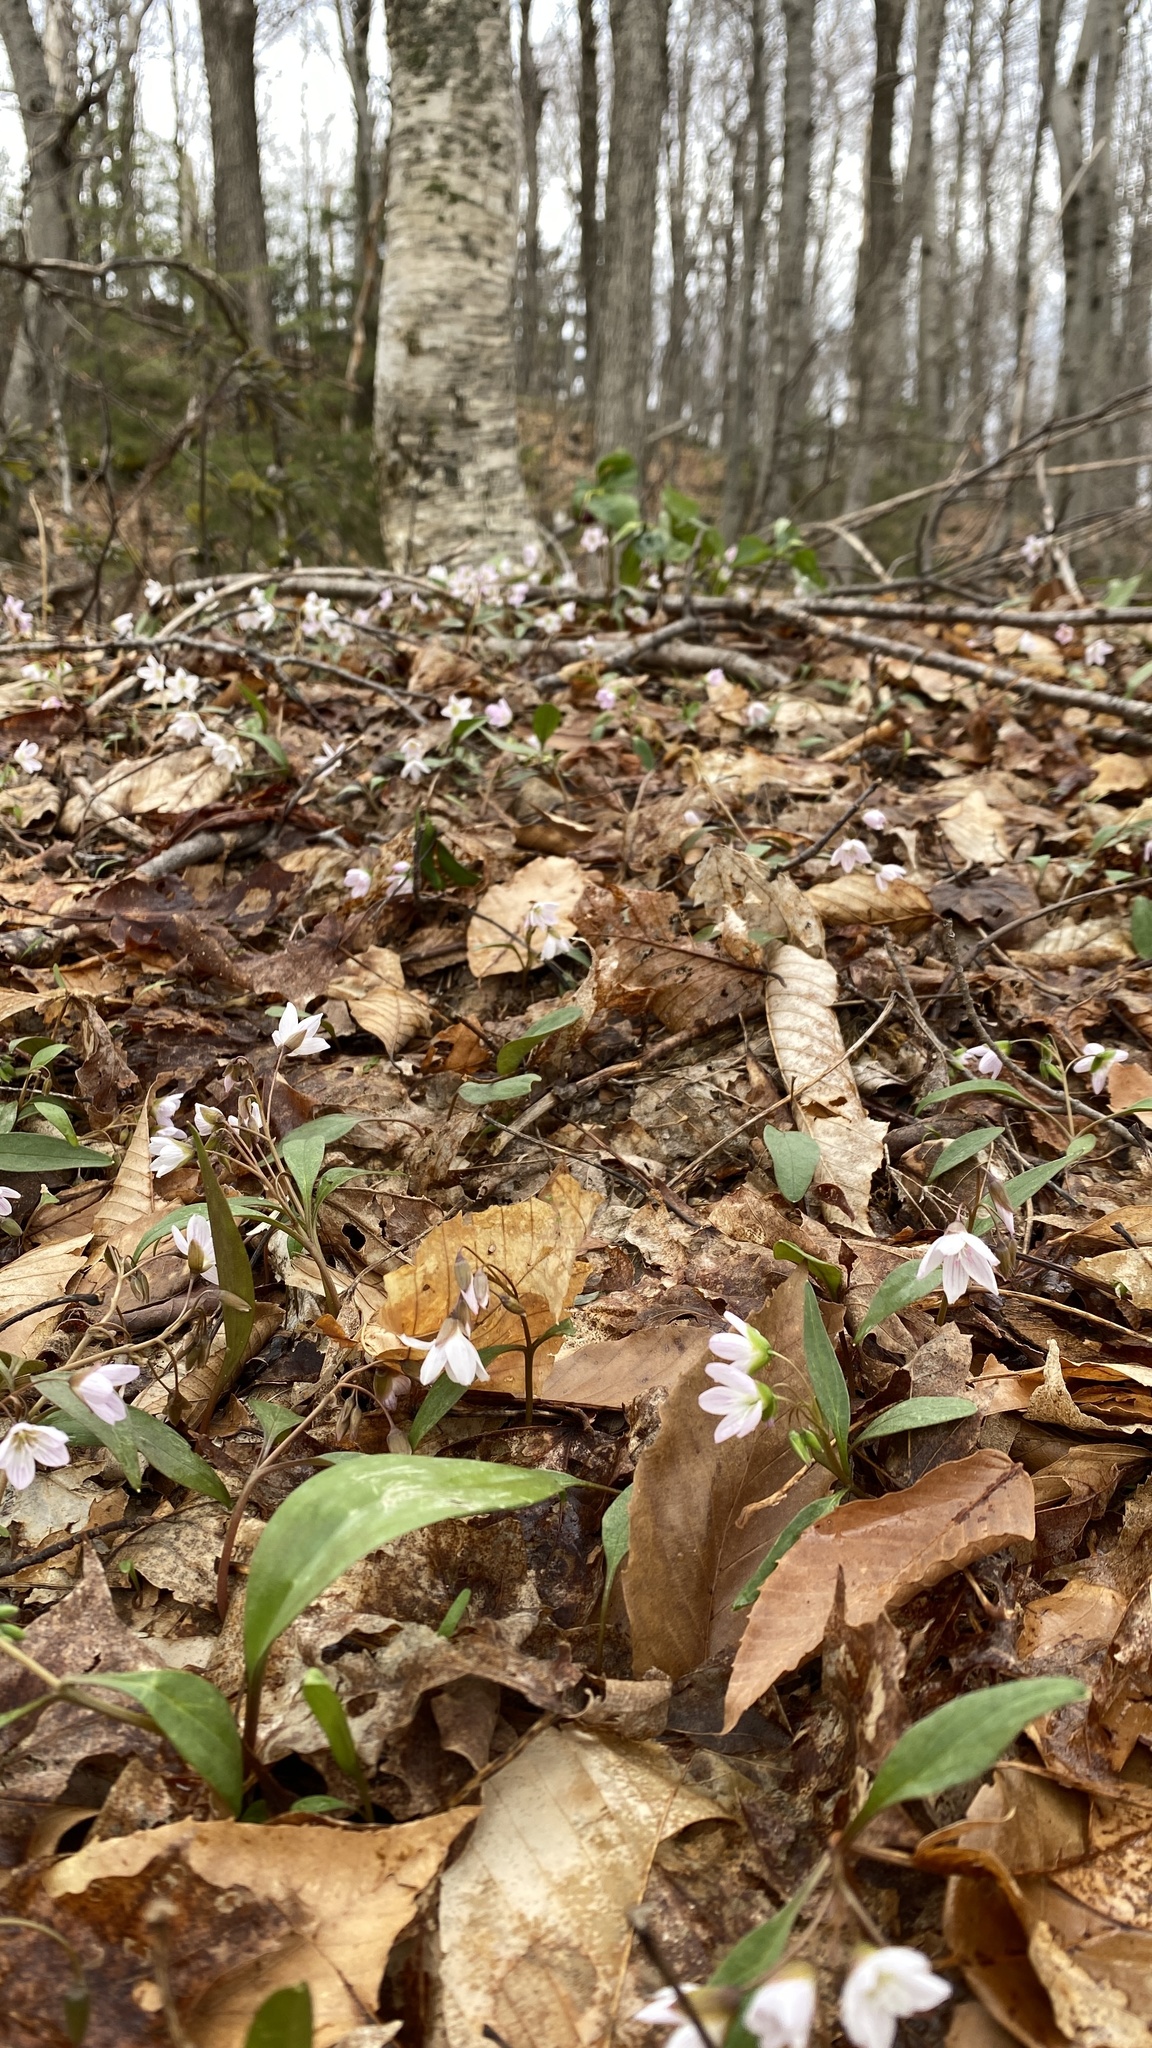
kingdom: Plantae
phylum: Tracheophyta
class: Magnoliopsida
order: Caryophyllales
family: Montiaceae
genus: Claytonia
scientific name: Claytonia caroliniana
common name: Carolina spring beauty
